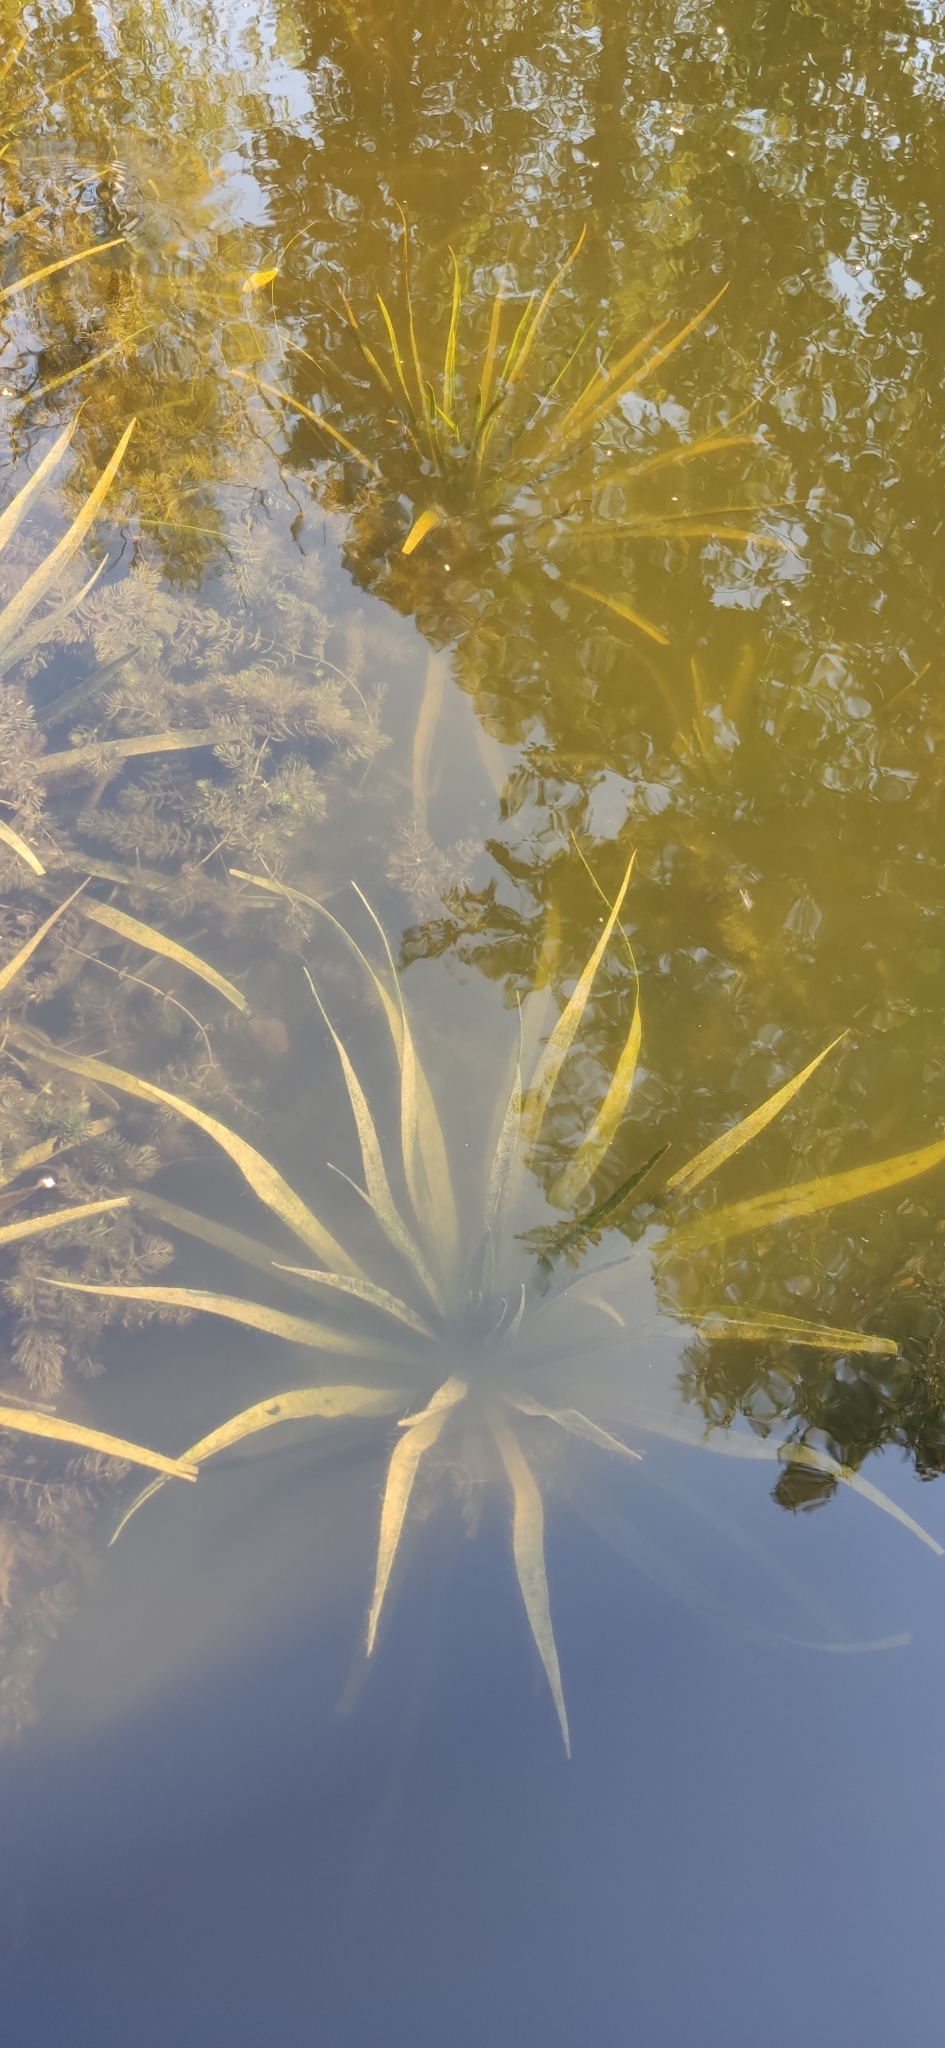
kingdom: Plantae
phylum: Tracheophyta
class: Liliopsida
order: Alismatales
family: Hydrocharitaceae
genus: Stratiotes
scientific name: Stratiotes aloides
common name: Water-soldier
